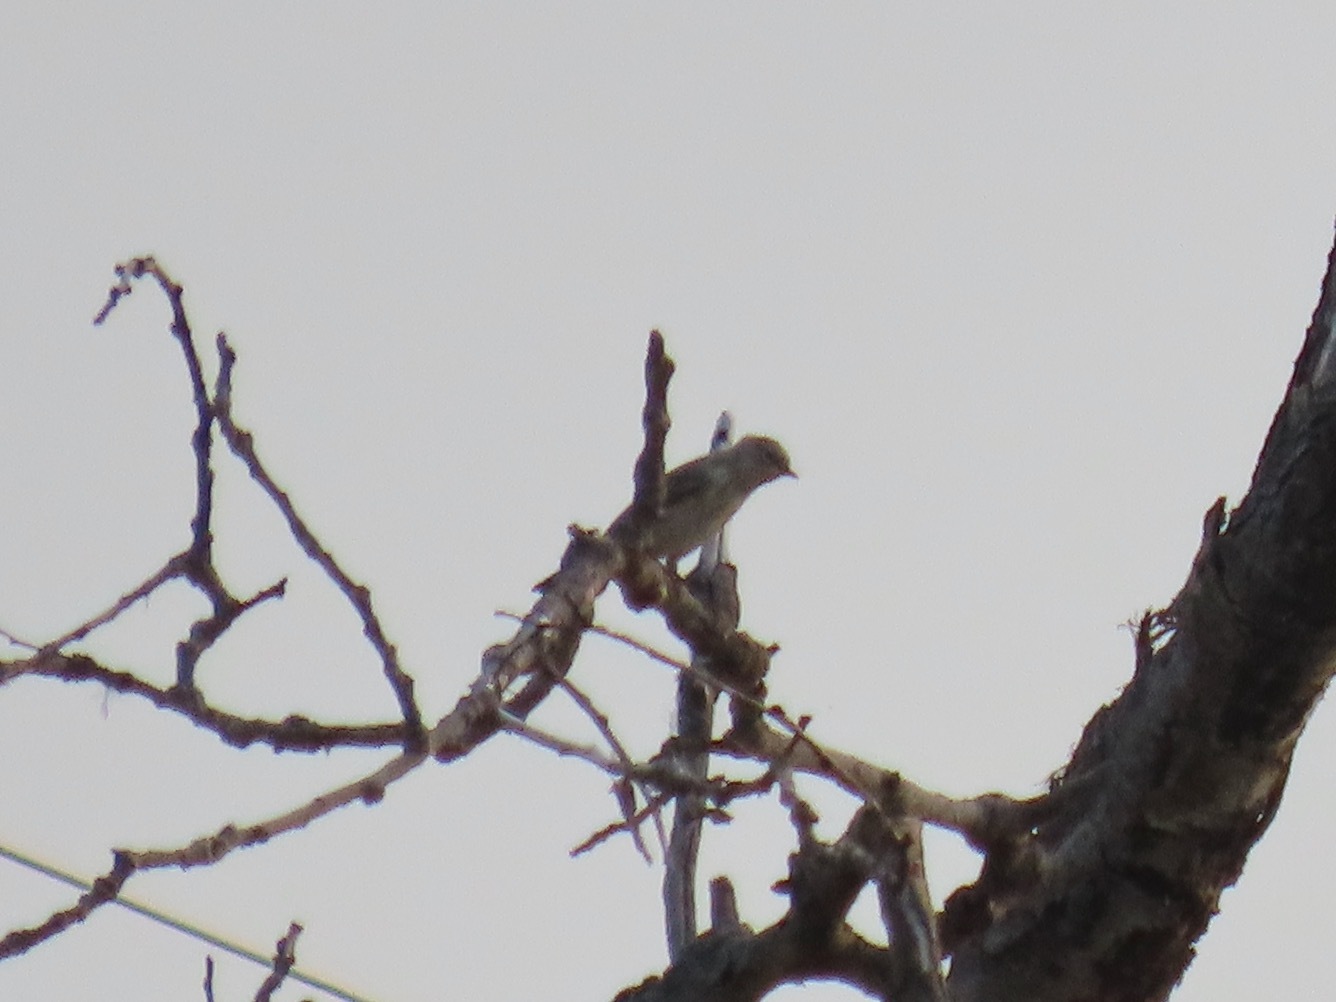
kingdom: Animalia
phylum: Chordata
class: Aves
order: Passeriformes
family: Parulidae
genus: Setophaga
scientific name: Setophaga coronata
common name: Myrtle warbler
